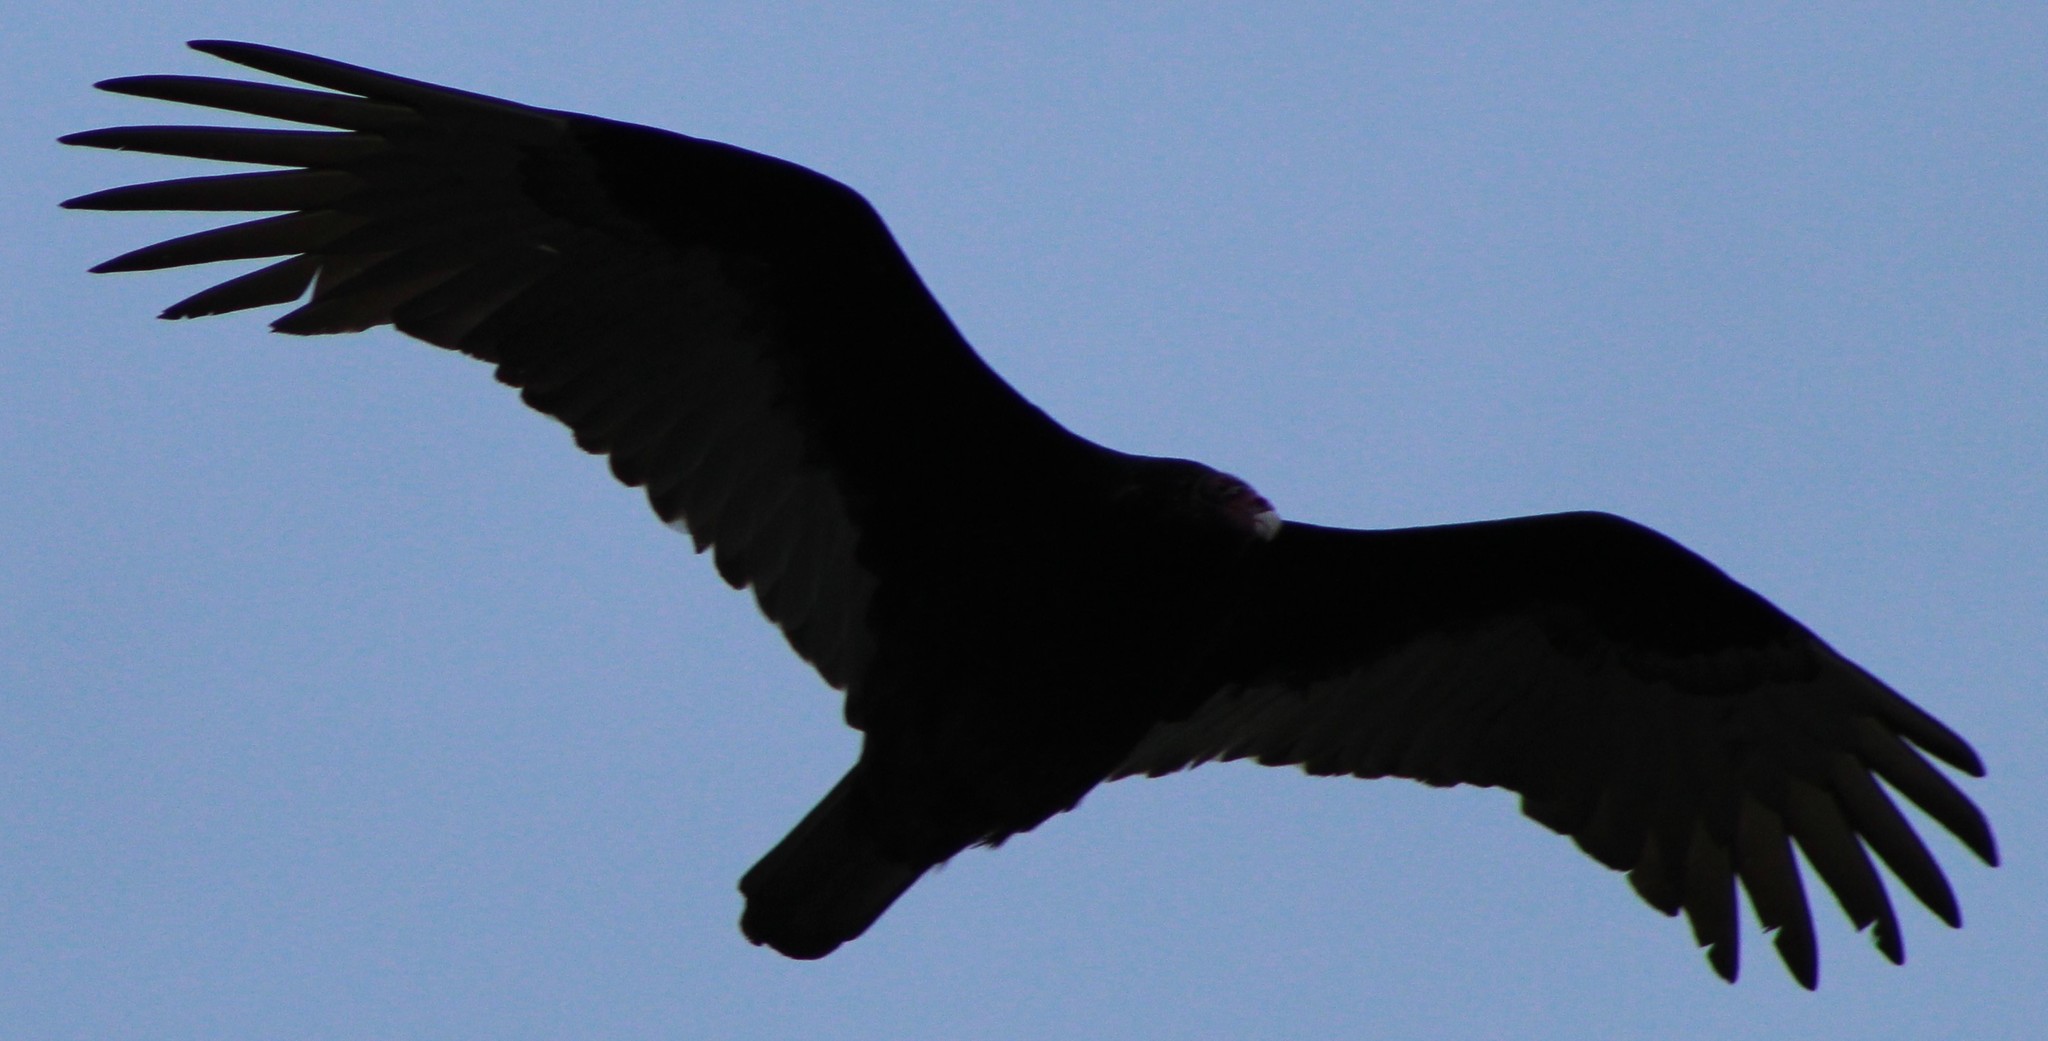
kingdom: Animalia
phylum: Chordata
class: Aves
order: Accipitriformes
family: Cathartidae
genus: Cathartes
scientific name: Cathartes aura
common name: Turkey vulture
